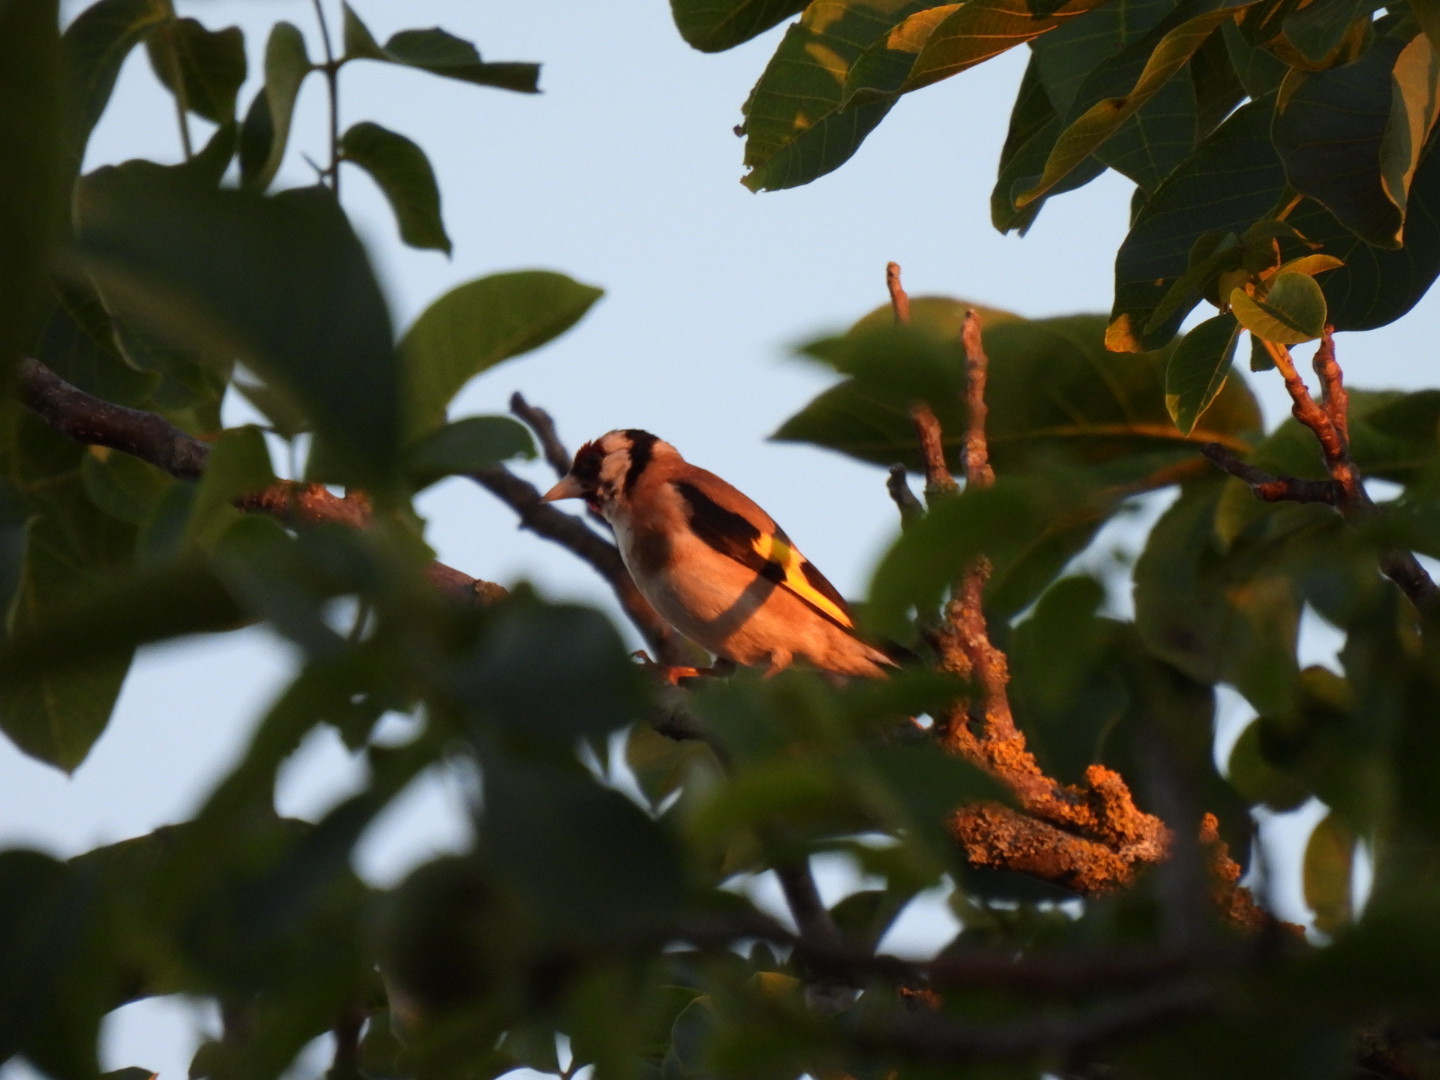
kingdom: Animalia
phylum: Chordata
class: Aves
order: Passeriformes
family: Fringillidae
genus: Carduelis
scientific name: Carduelis carduelis
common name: European goldfinch
